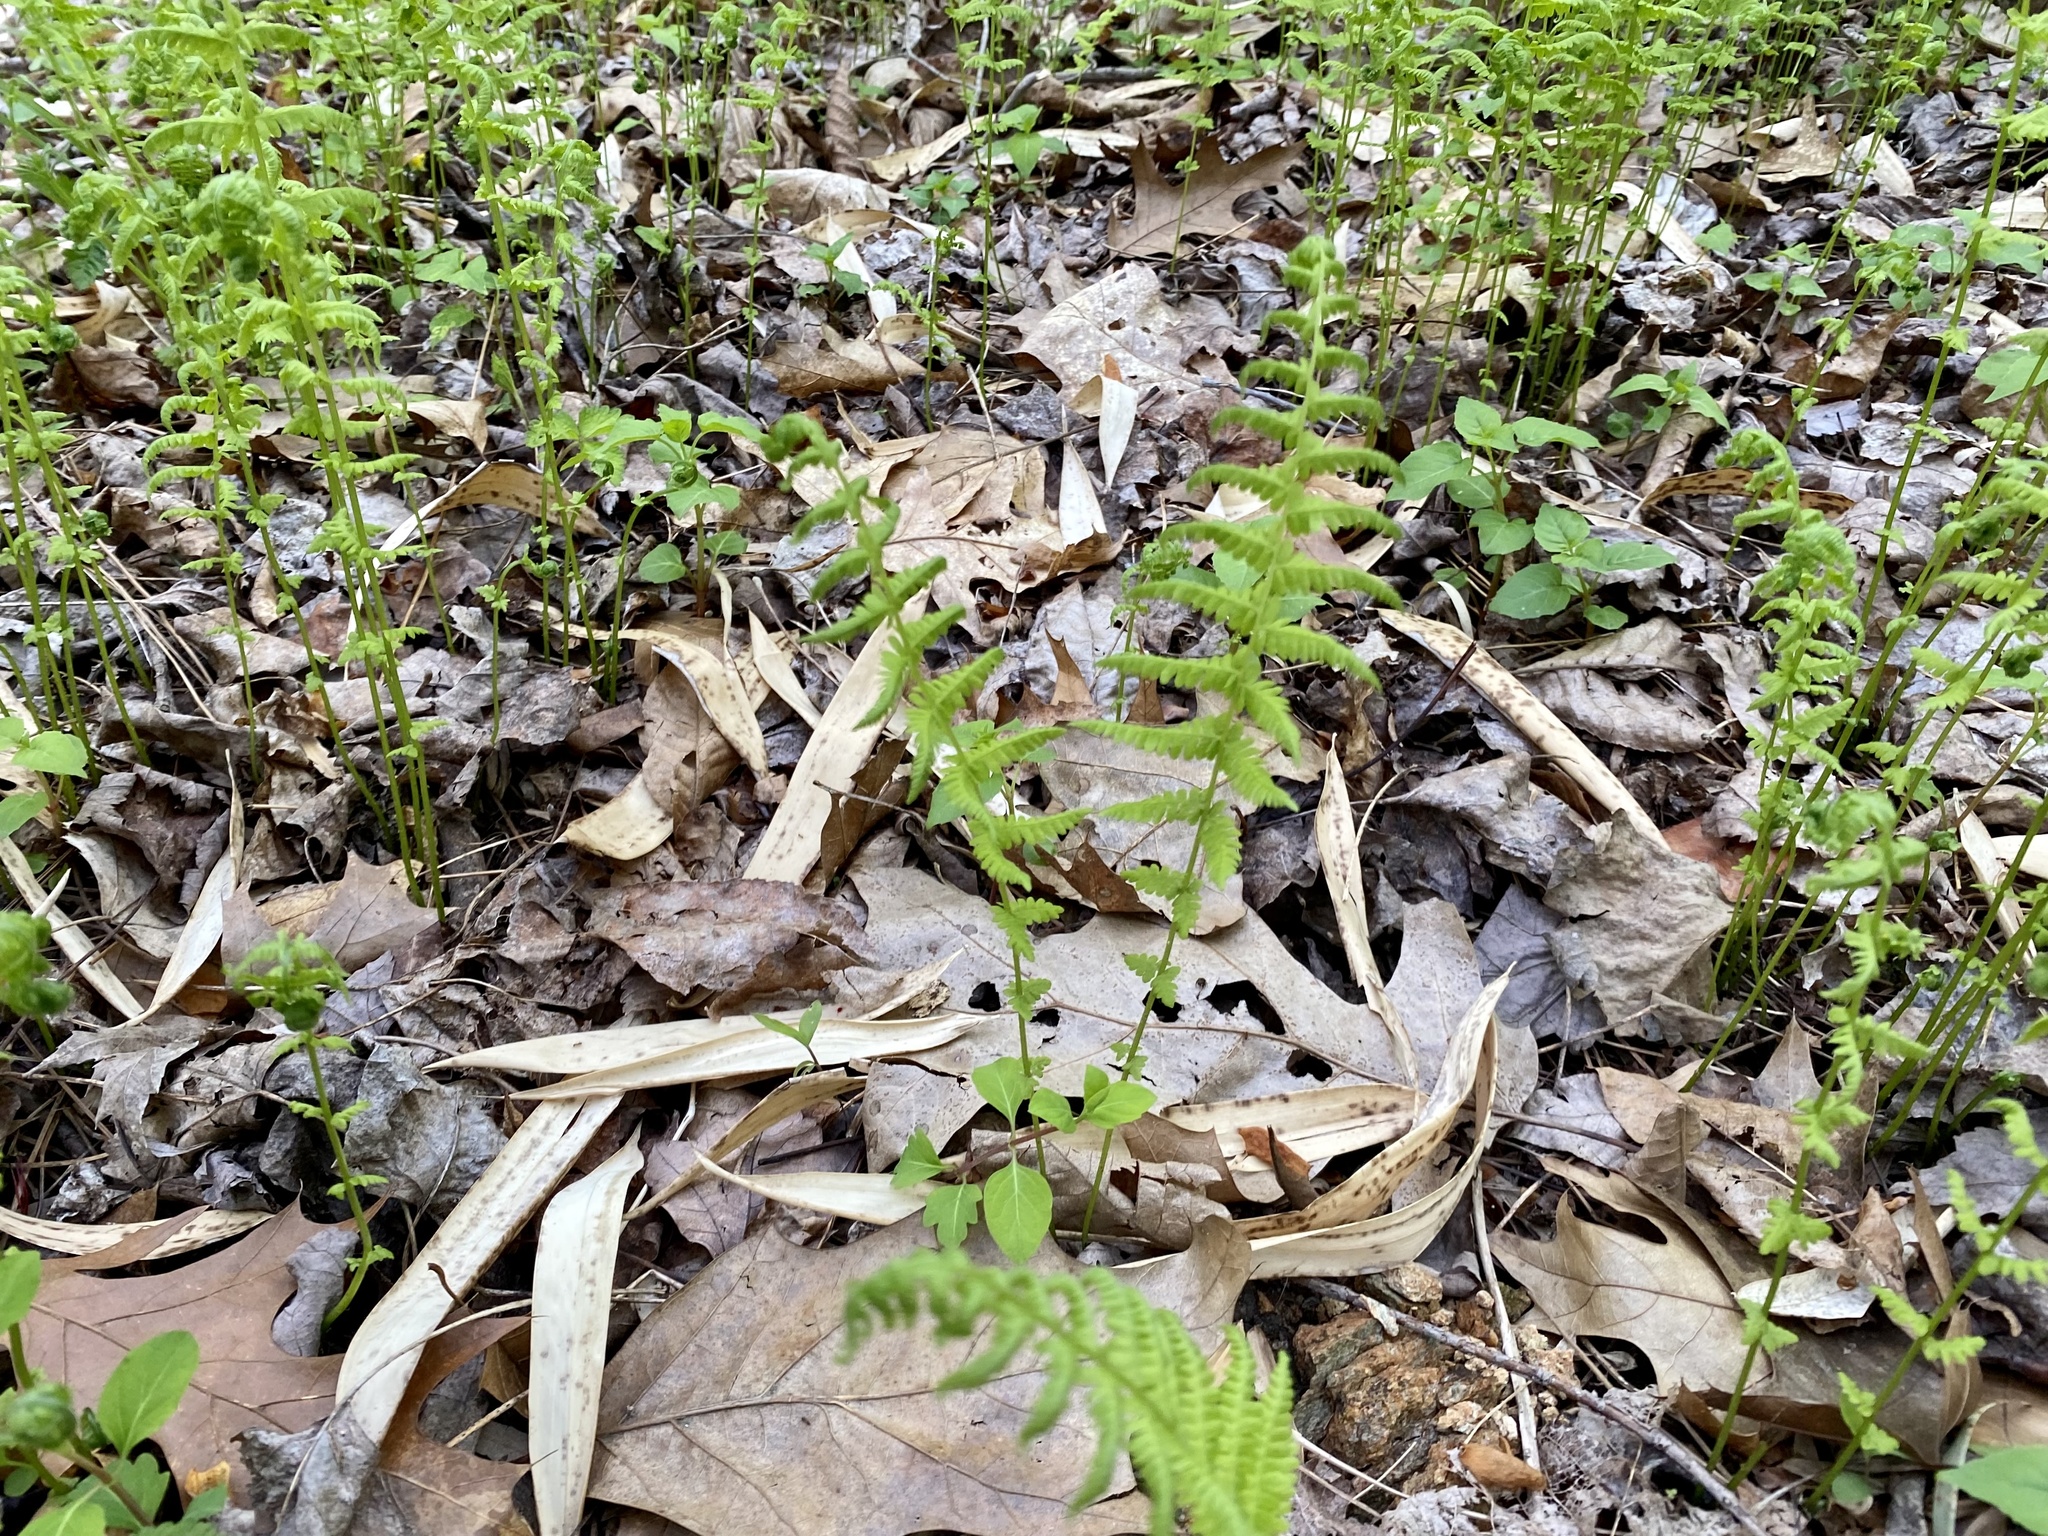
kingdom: Plantae
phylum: Tracheophyta
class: Polypodiopsida
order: Polypodiales
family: Thelypteridaceae
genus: Amauropelta
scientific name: Amauropelta noveboracensis
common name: New york fern
